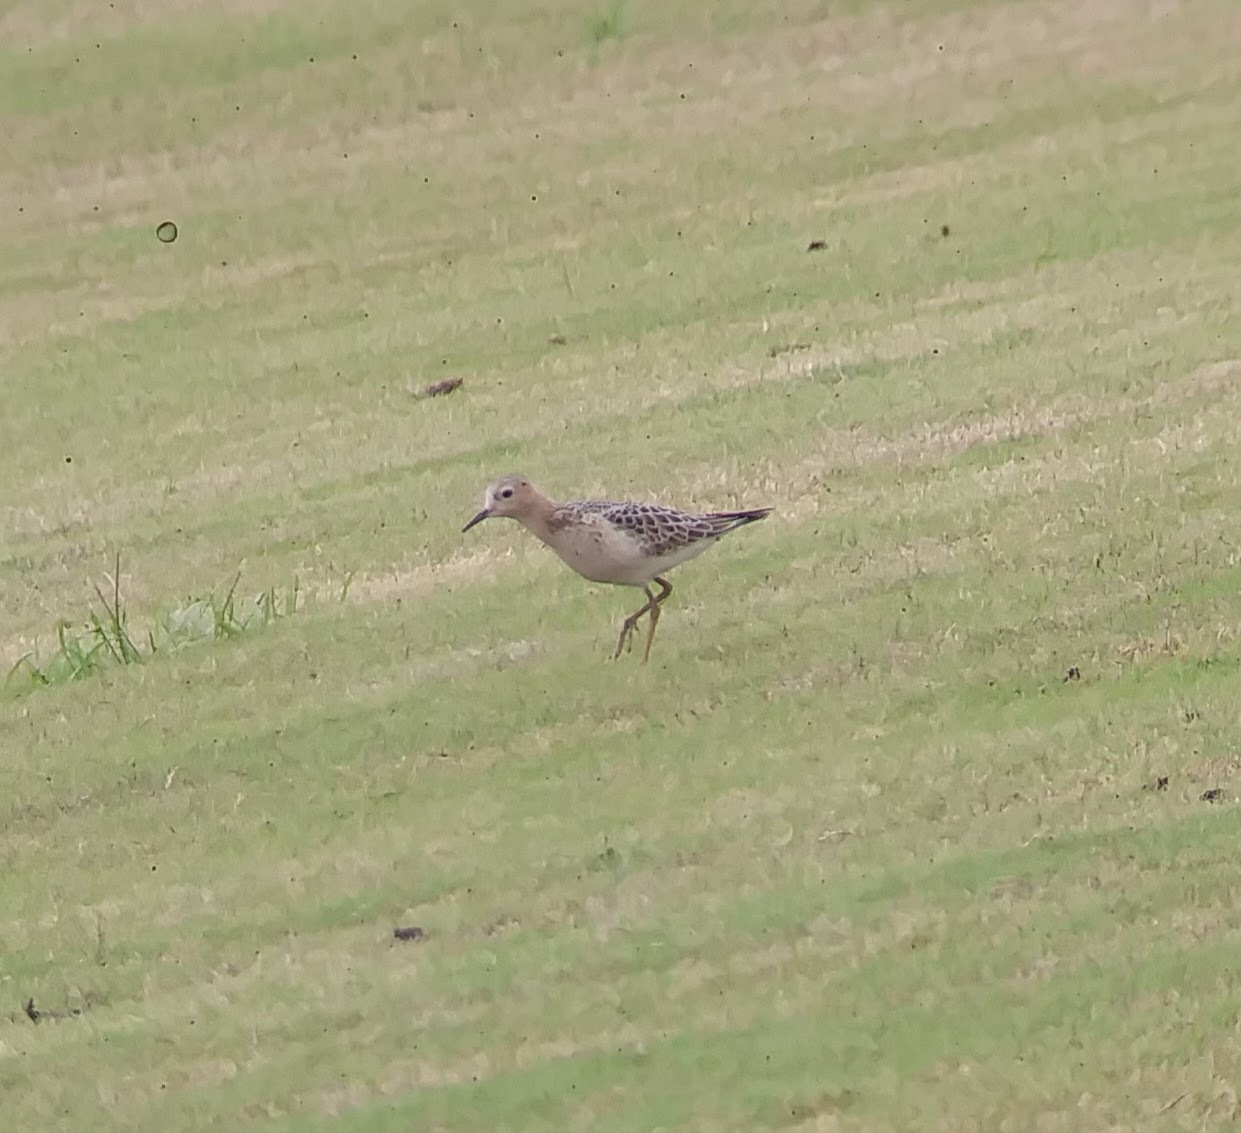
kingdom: Animalia
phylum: Chordata
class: Aves
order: Charadriiformes
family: Scolopacidae
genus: Calidris
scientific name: Calidris subruficollis
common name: Buff-breasted sandpiper
